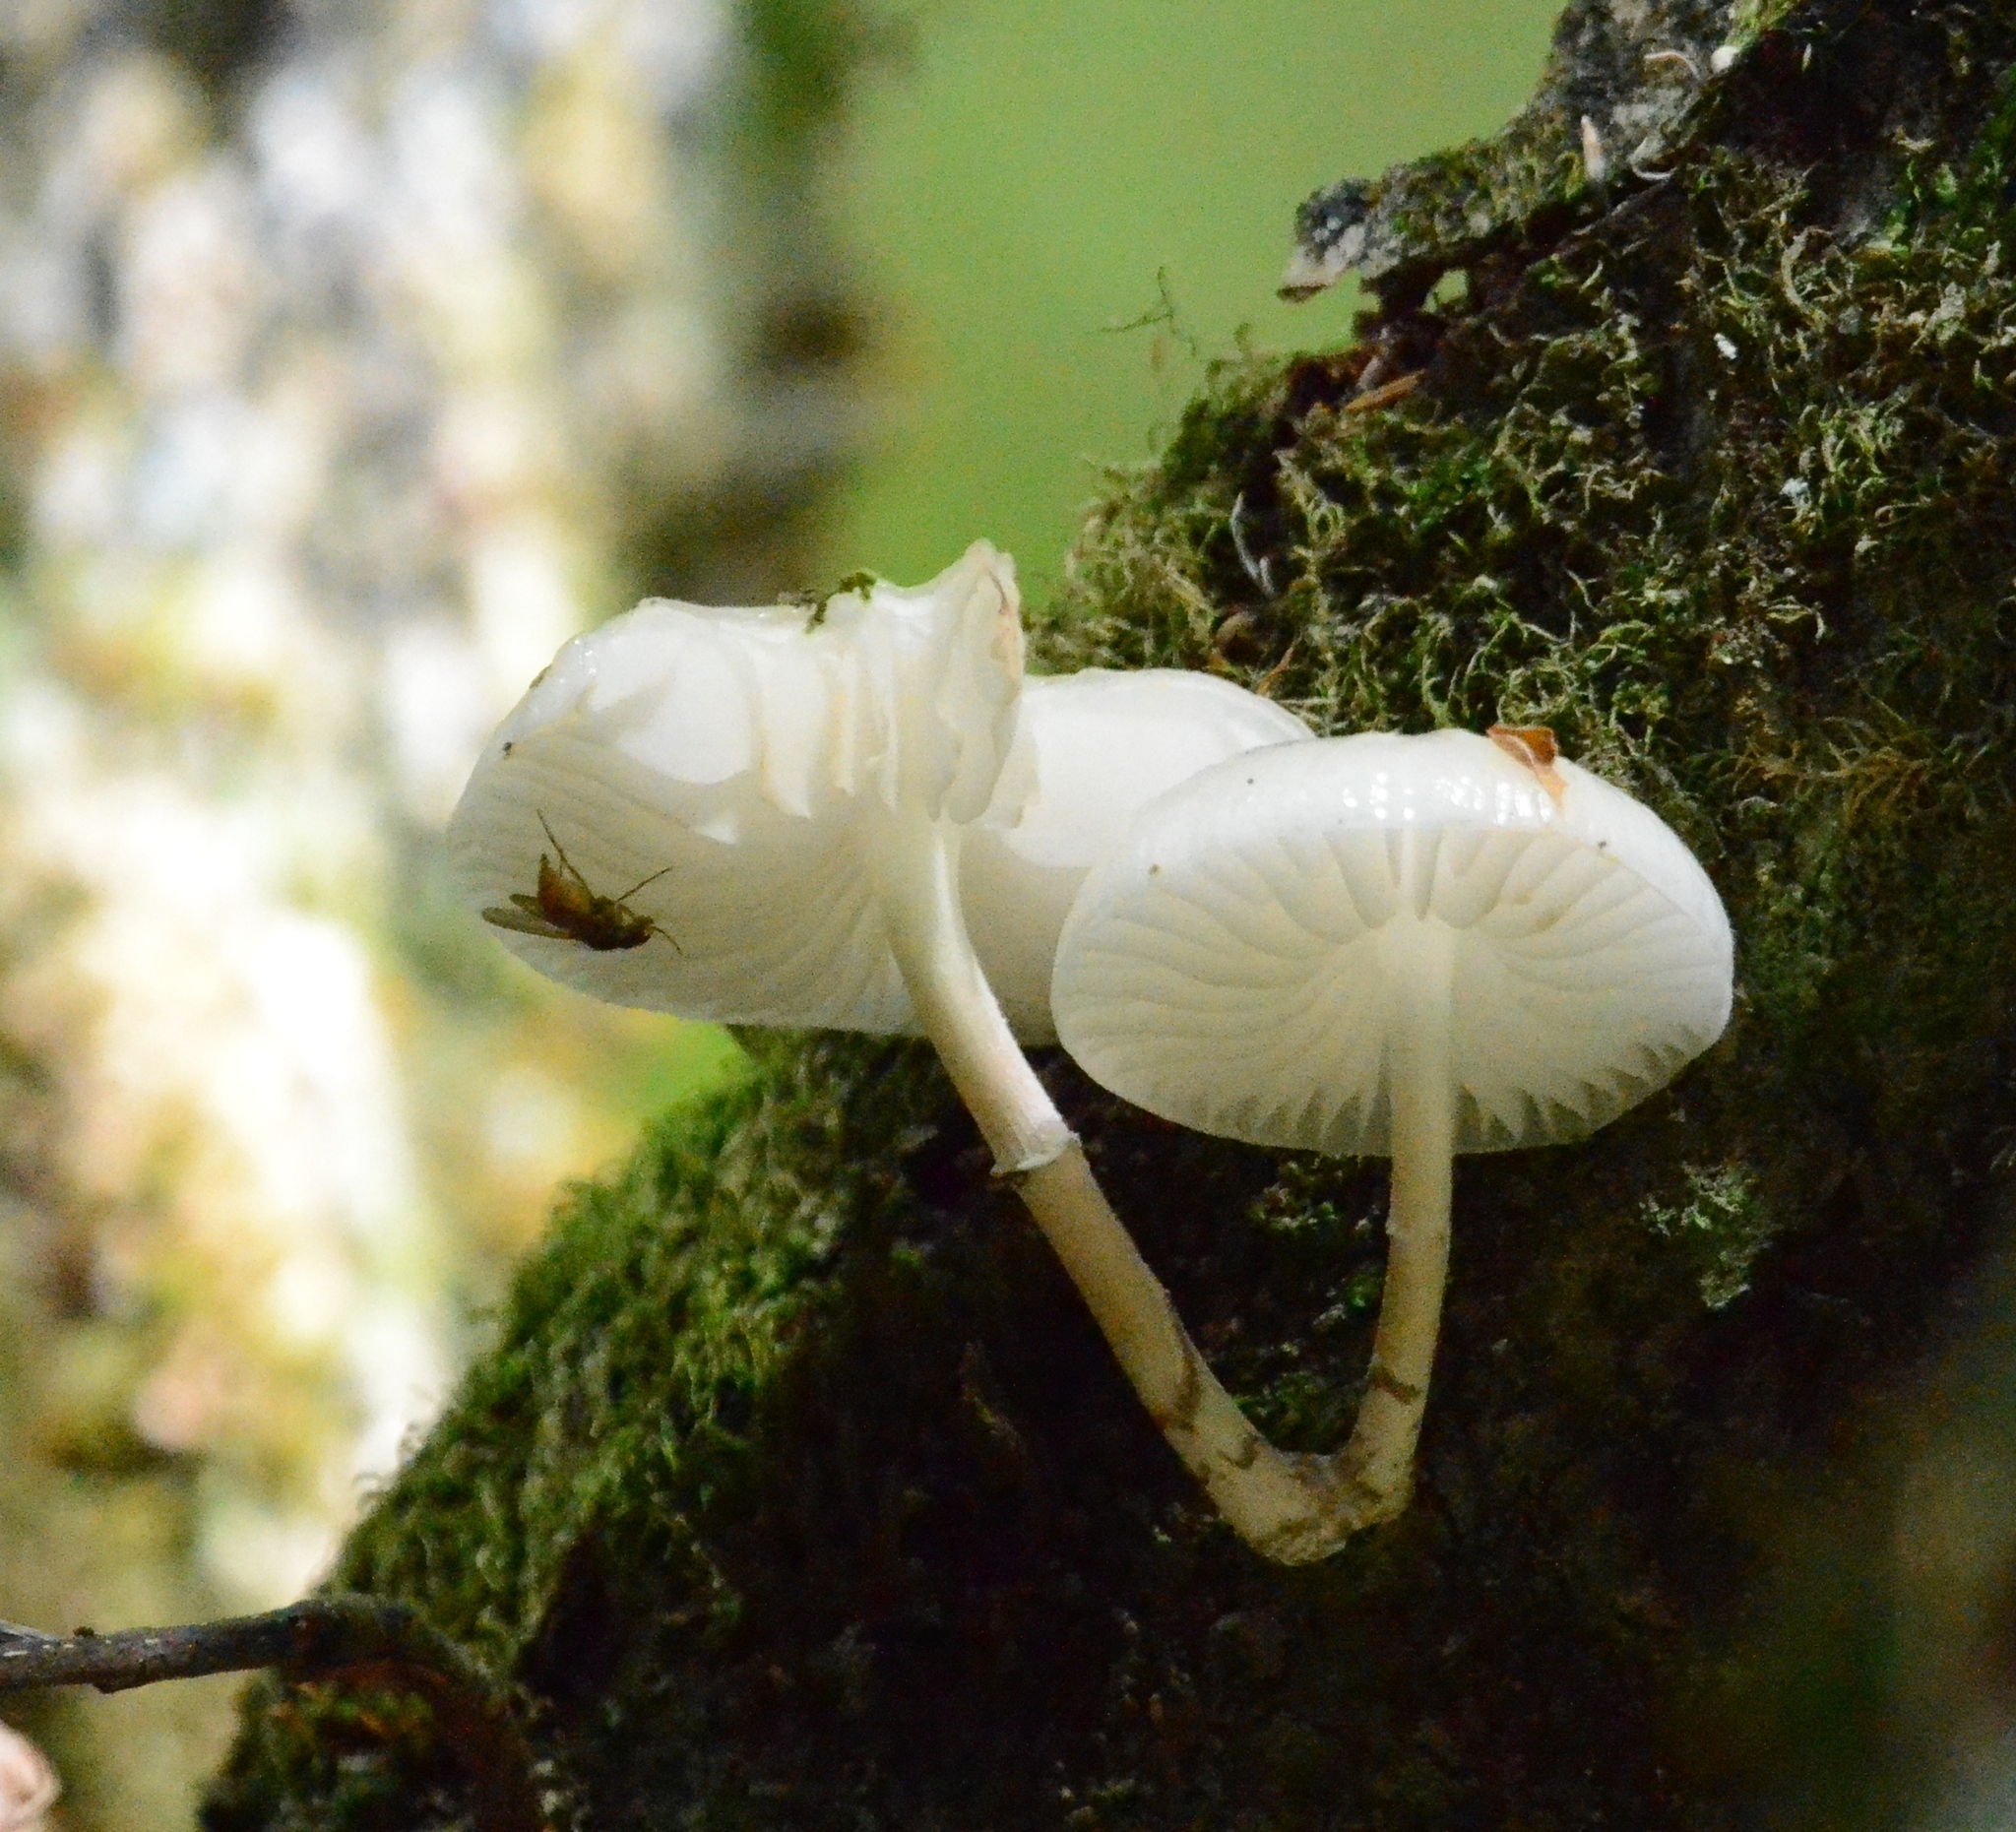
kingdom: Fungi
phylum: Basidiomycota
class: Agaricomycetes
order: Agaricales
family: Physalacriaceae
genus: Mucidula
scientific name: Mucidula mucida
